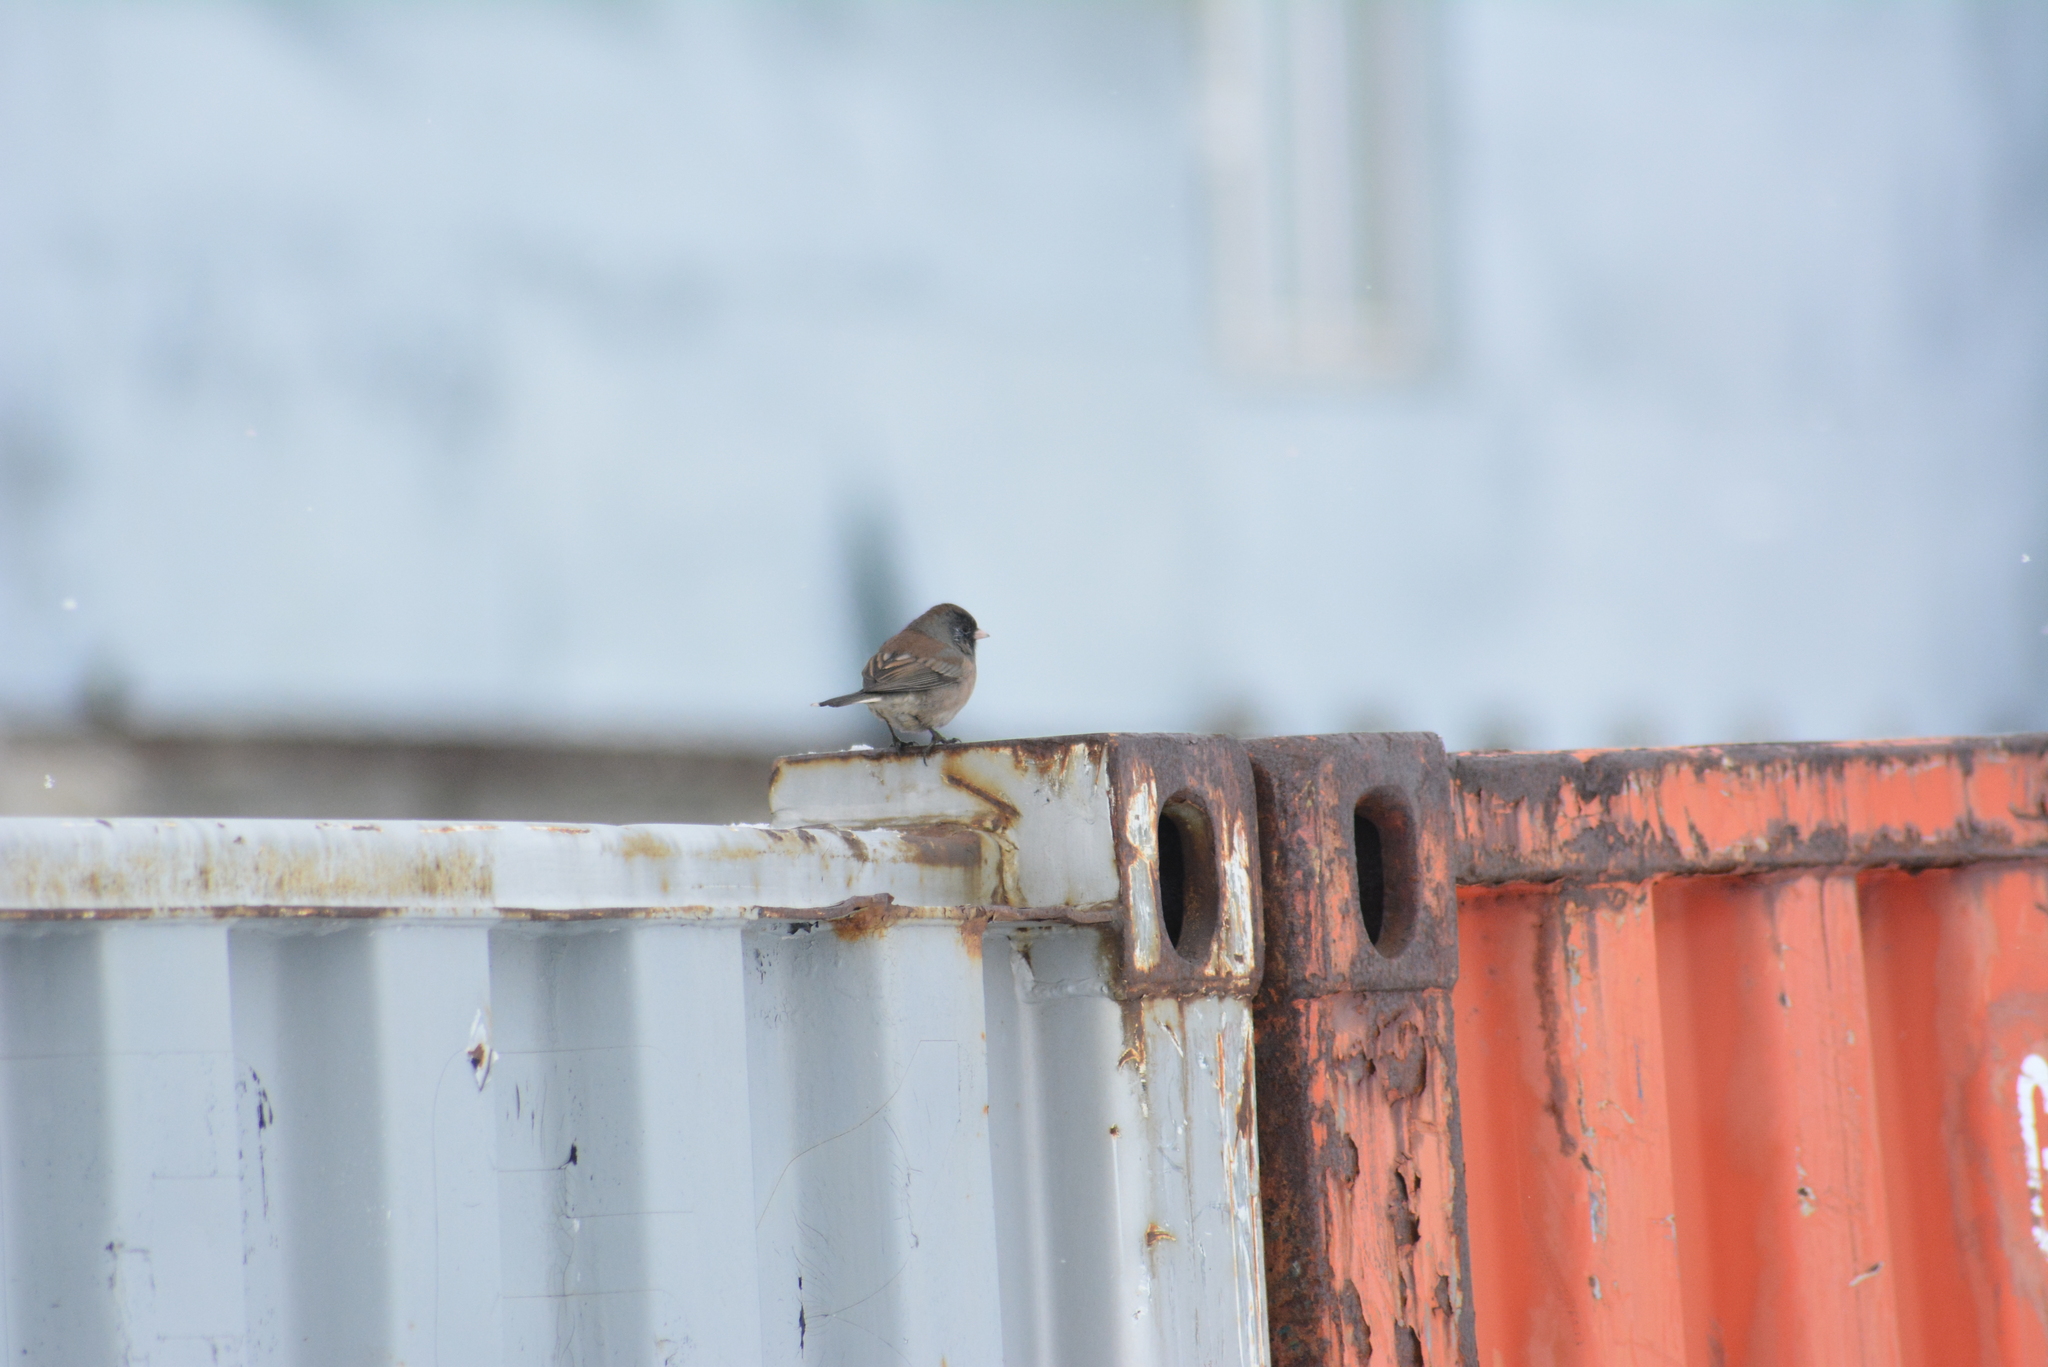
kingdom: Animalia
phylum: Chordata
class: Aves
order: Passeriformes
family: Passerellidae
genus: Junco
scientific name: Junco hyemalis
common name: Dark-eyed junco
